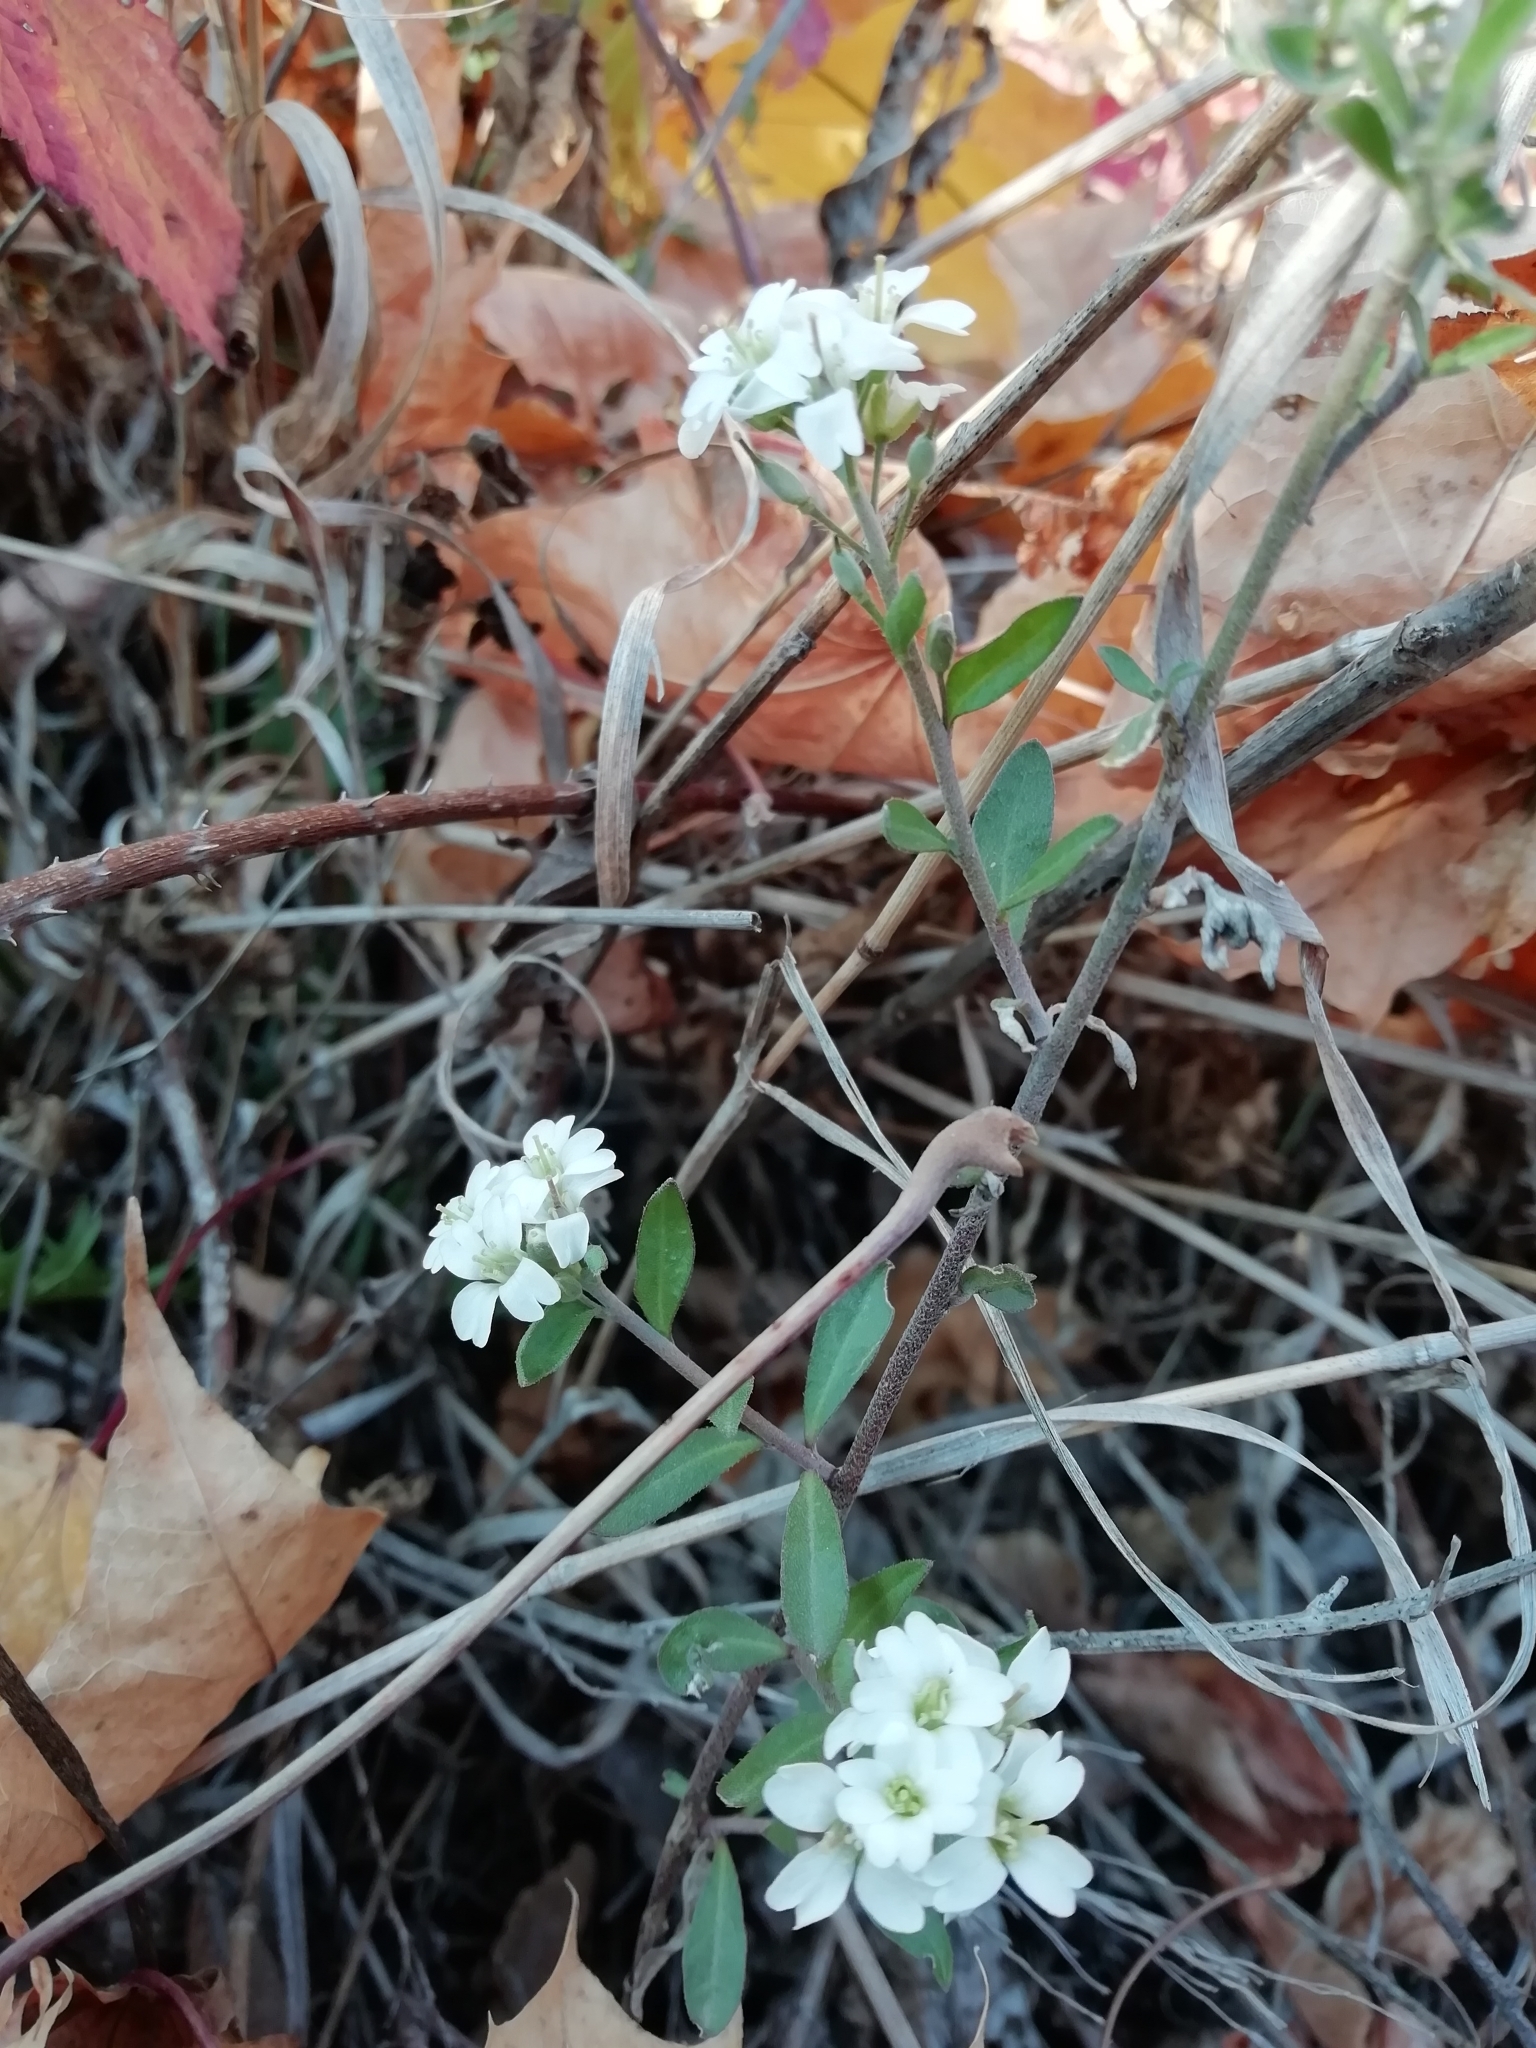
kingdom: Plantae
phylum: Tracheophyta
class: Magnoliopsida
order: Brassicales
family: Brassicaceae
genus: Berteroa
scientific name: Berteroa incana
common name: Hoary alison
